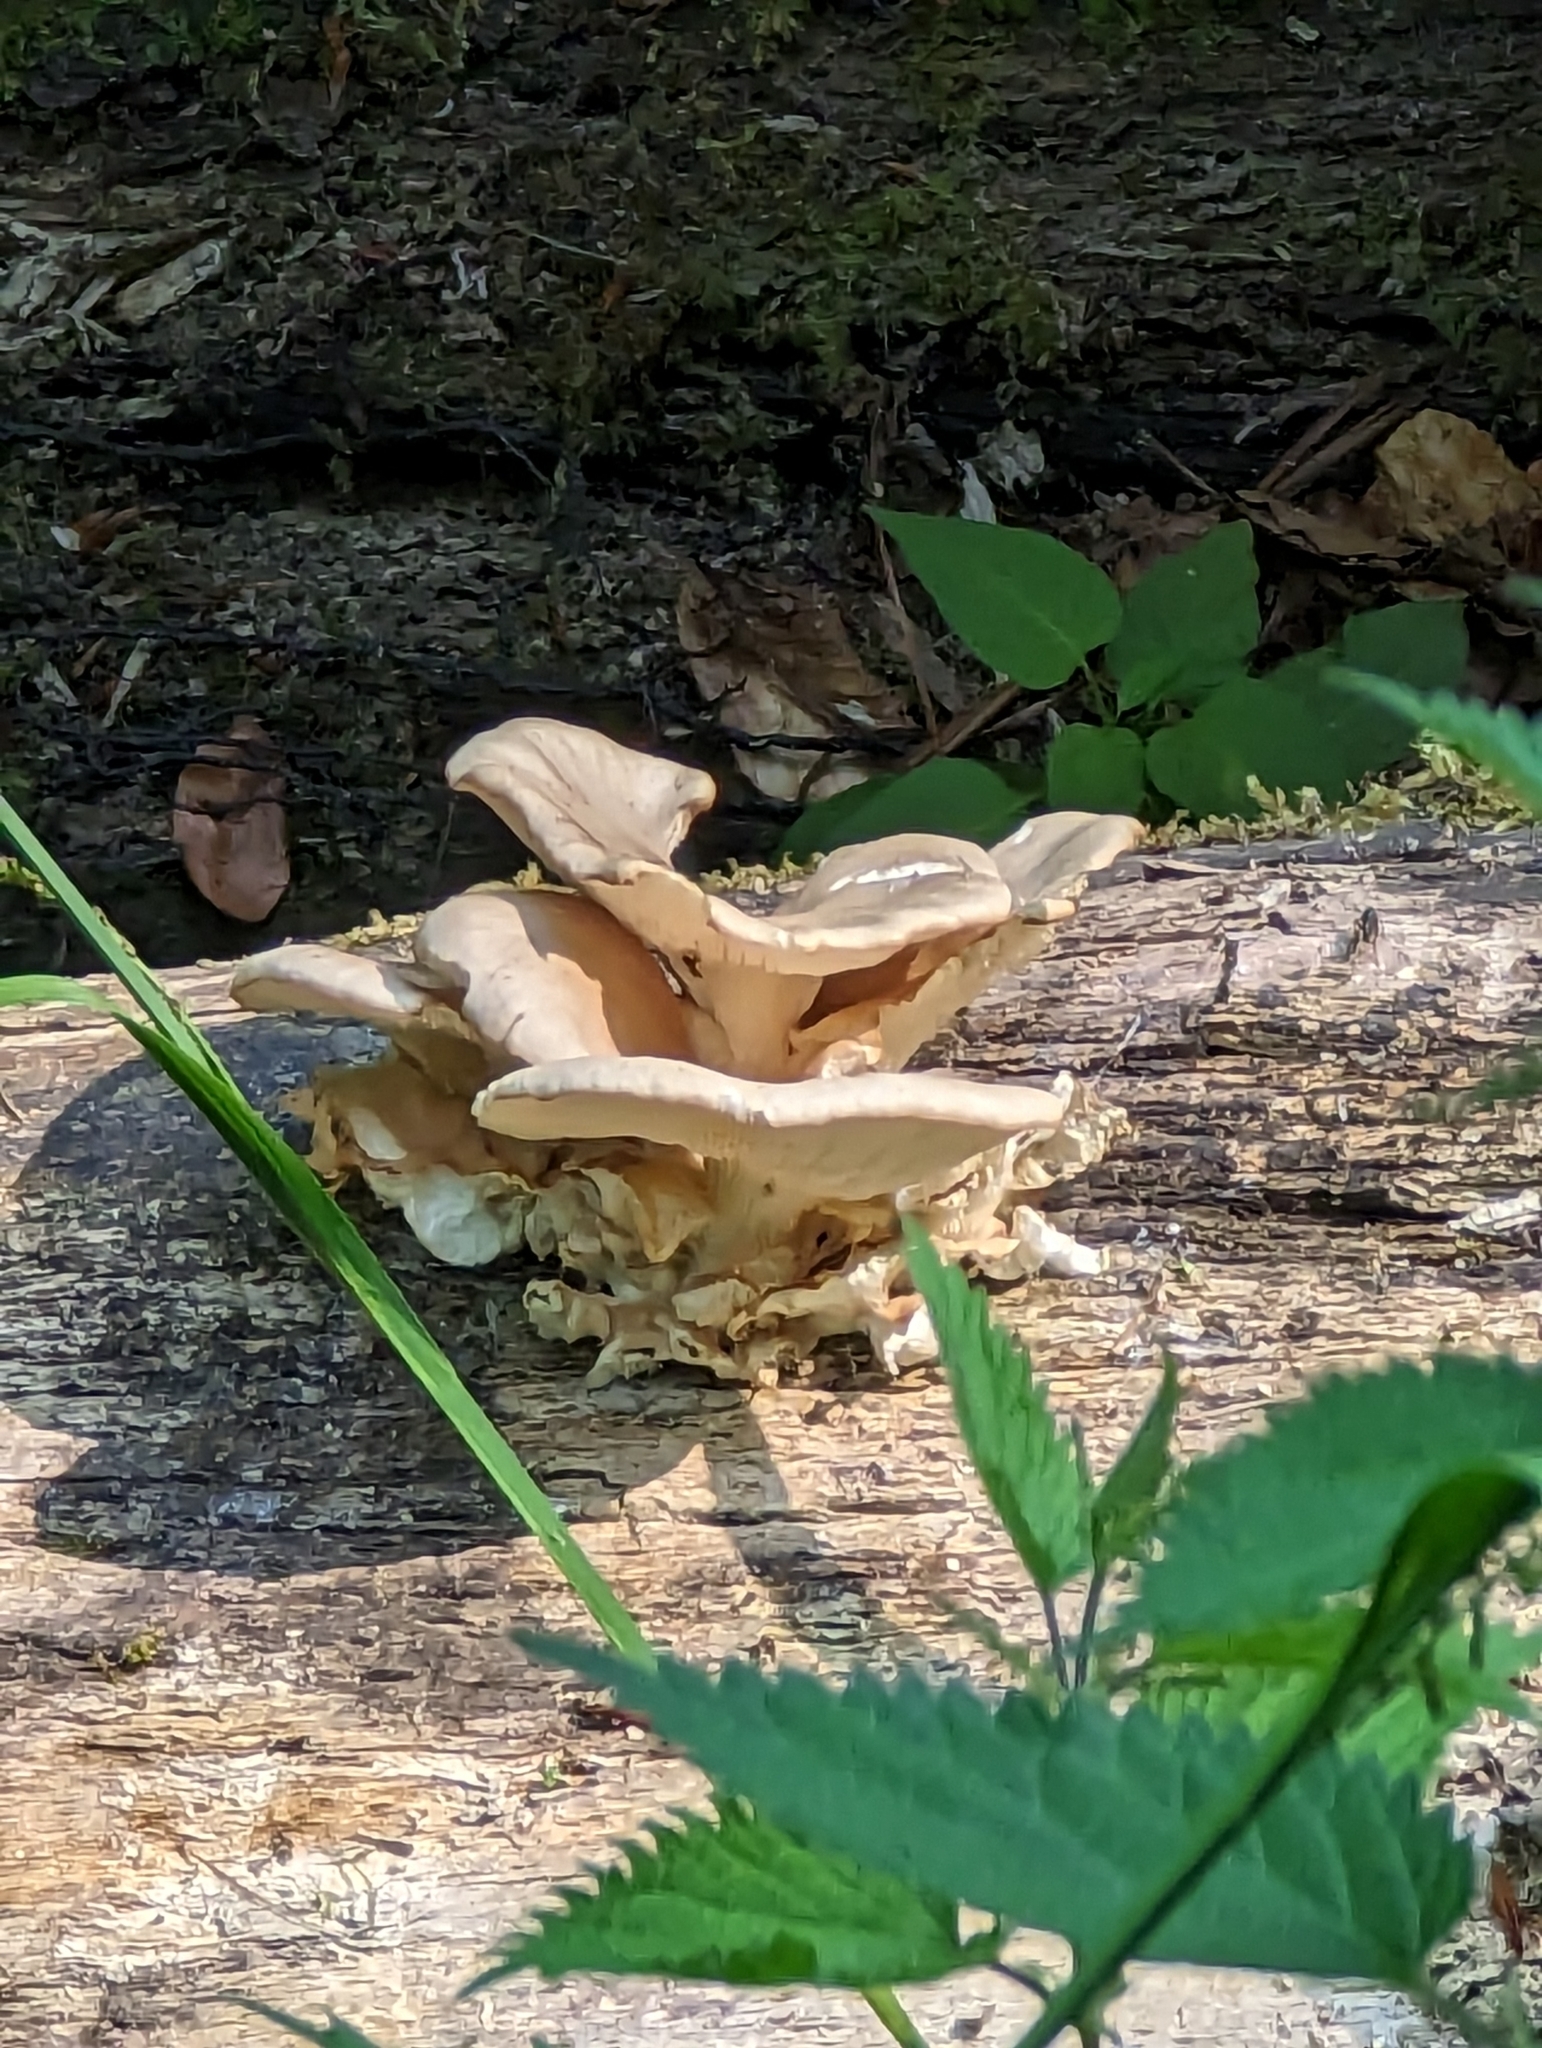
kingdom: Fungi
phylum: Basidiomycota
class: Agaricomycetes
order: Polyporales
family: Meripilaceae
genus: Meripilus
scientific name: Meripilus giganteus
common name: Giant polypore
